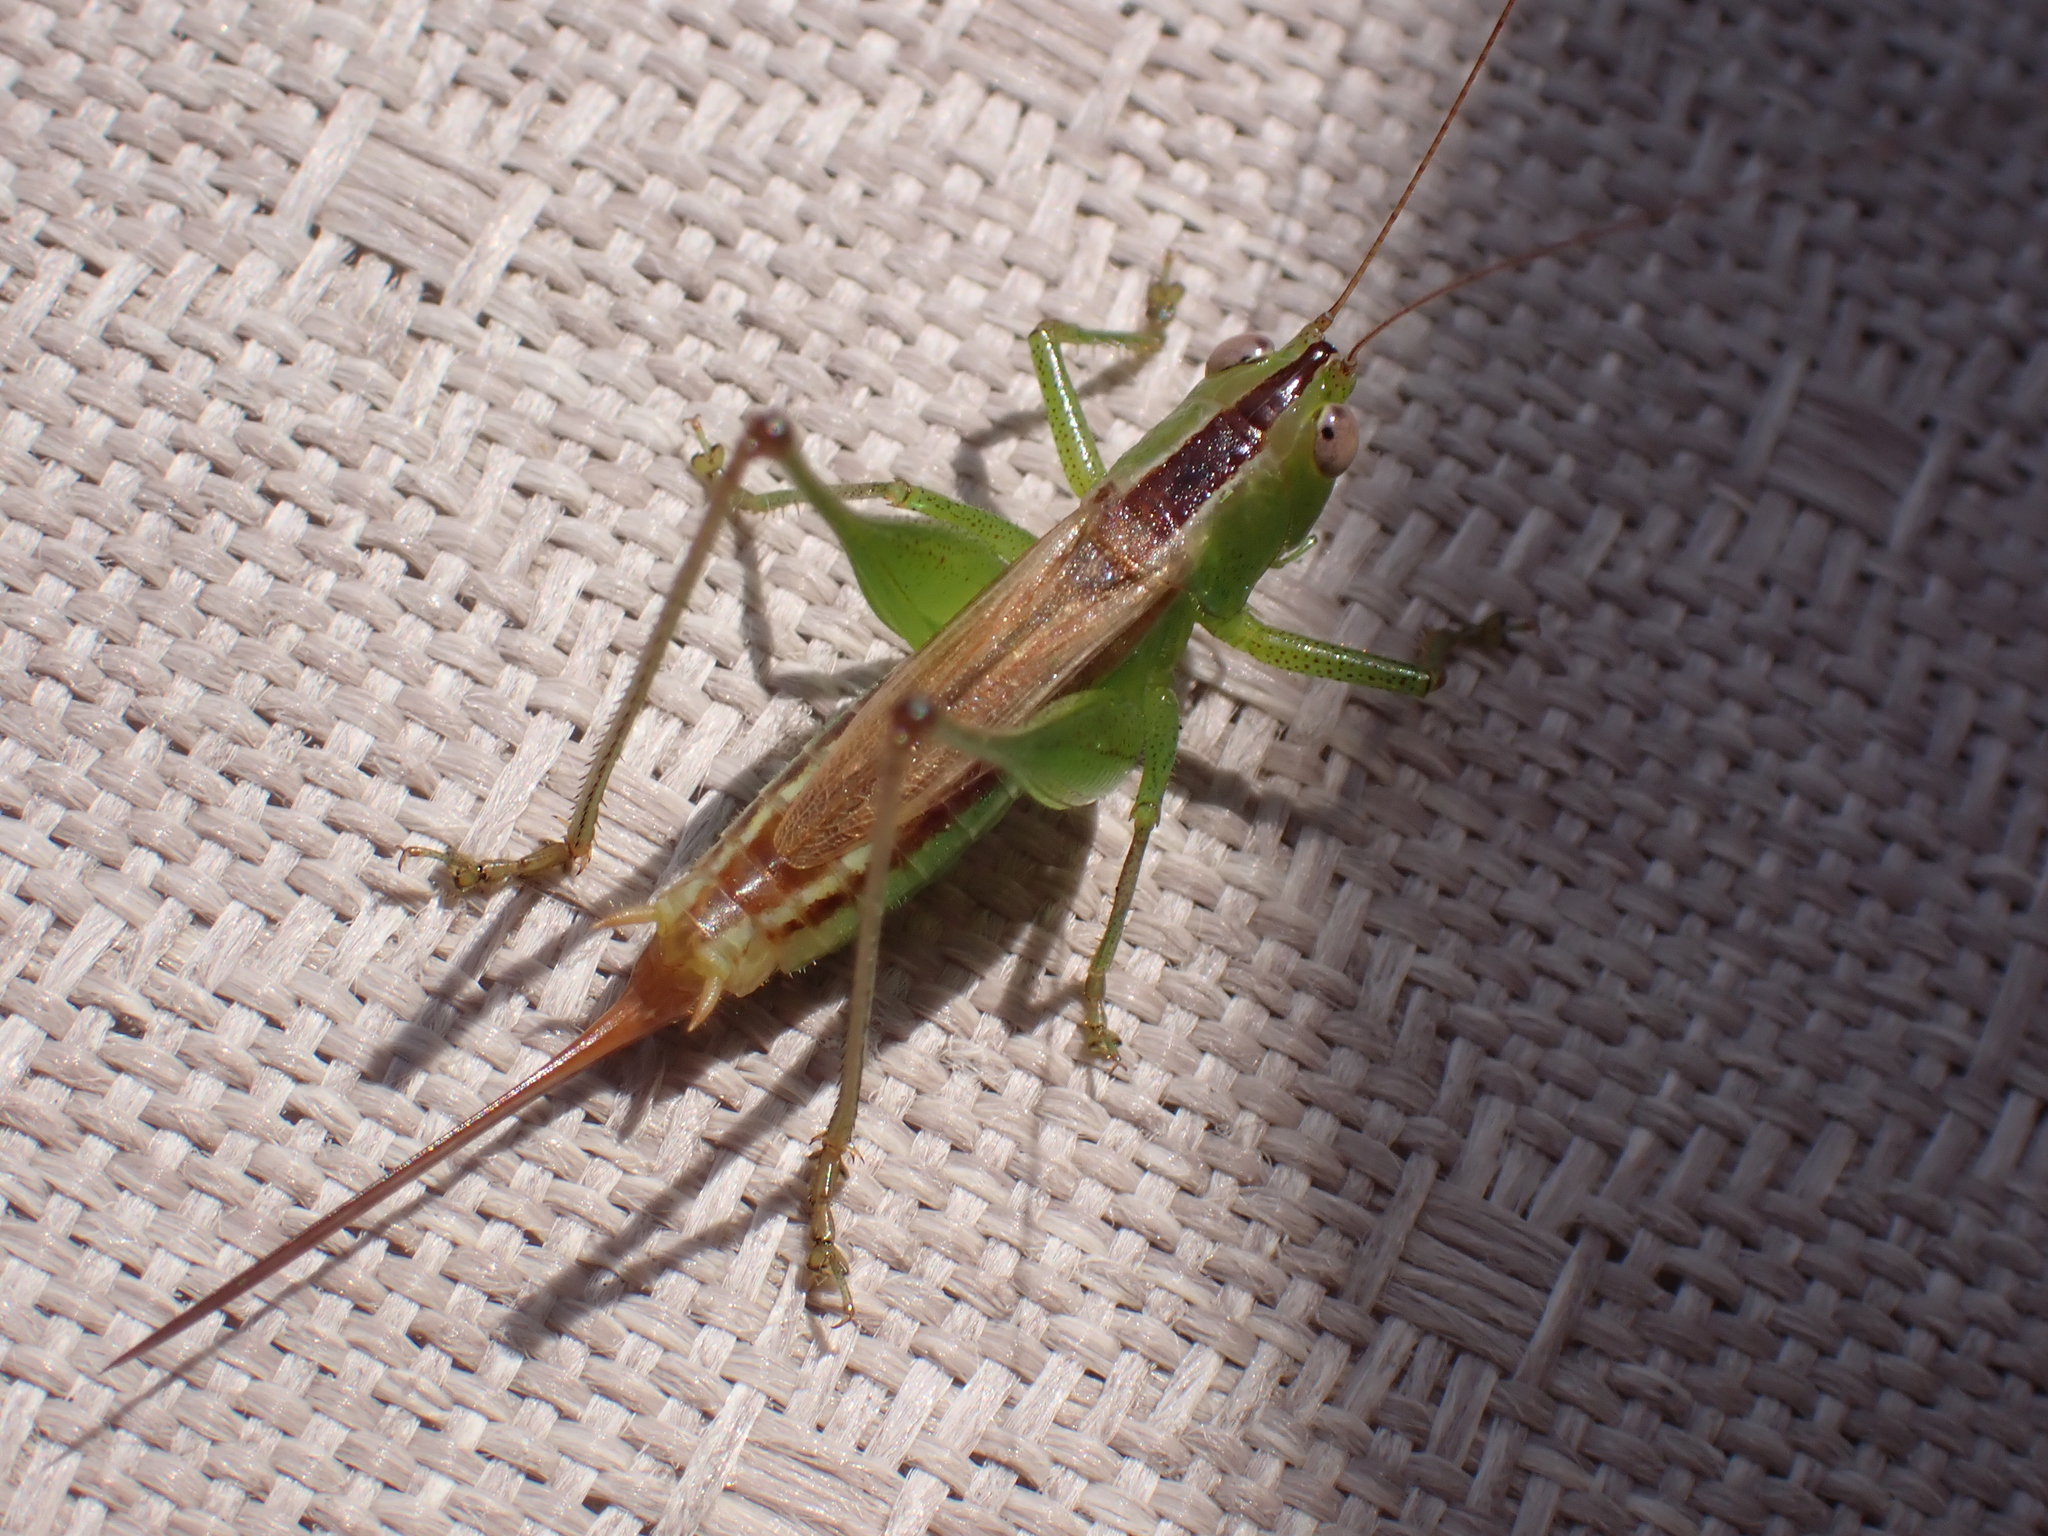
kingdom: Animalia
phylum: Arthropoda
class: Insecta
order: Orthoptera
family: Tettigoniidae
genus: Conocephalus
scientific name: Conocephalus brevipennis
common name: Short-winged meadow katydid
